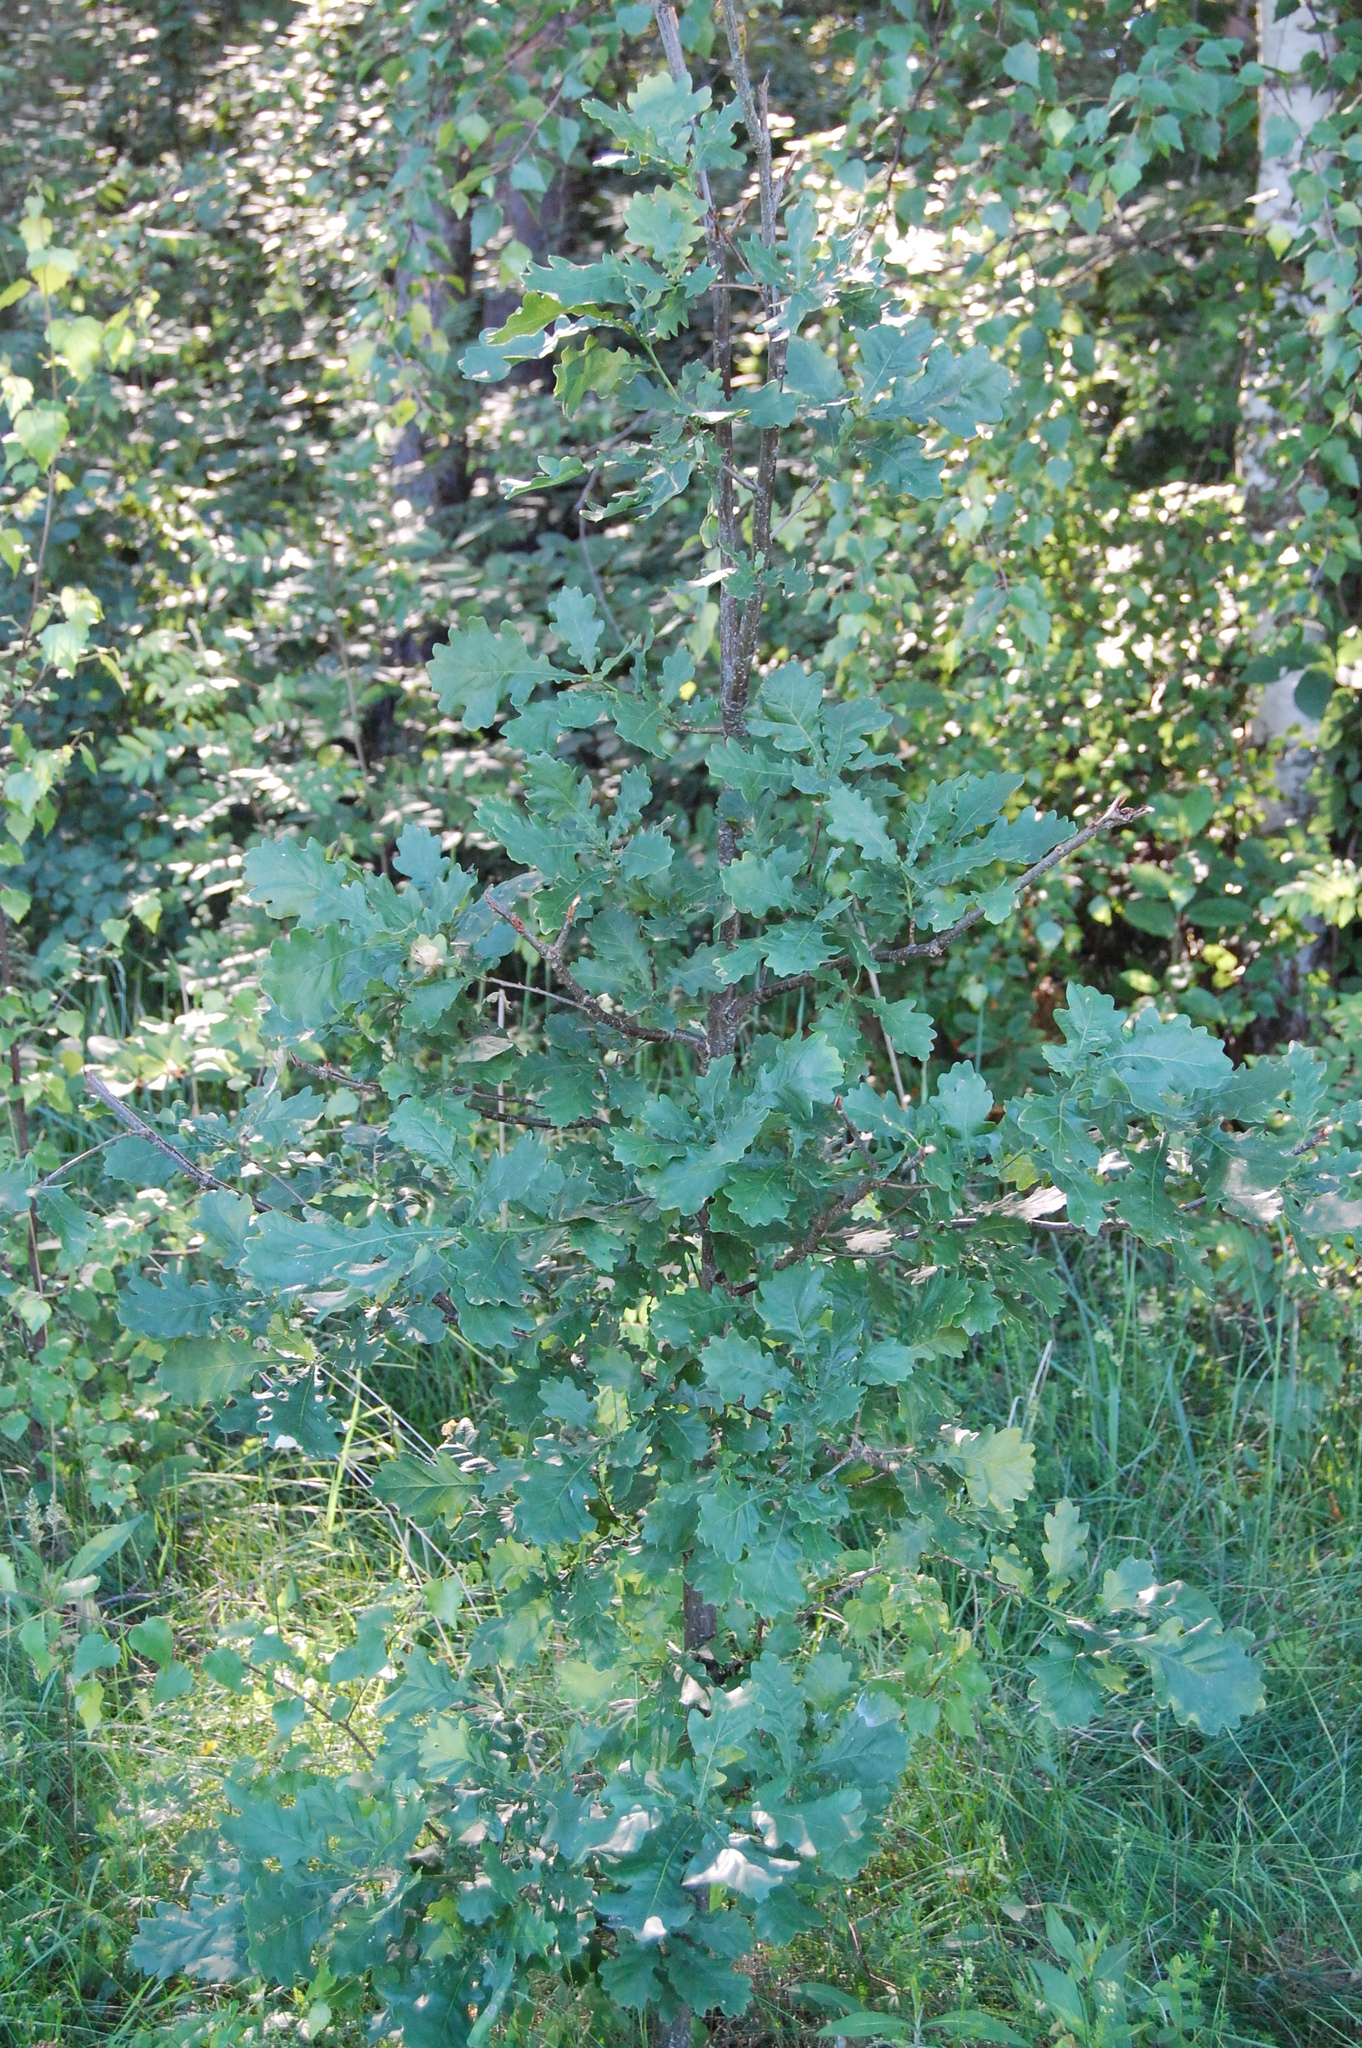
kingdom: Plantae
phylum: Tracheophyta
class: Magnoliopsida
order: Fagales
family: Fagaceae
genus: Quercus
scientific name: Quercus robur
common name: Pedunculate oak
